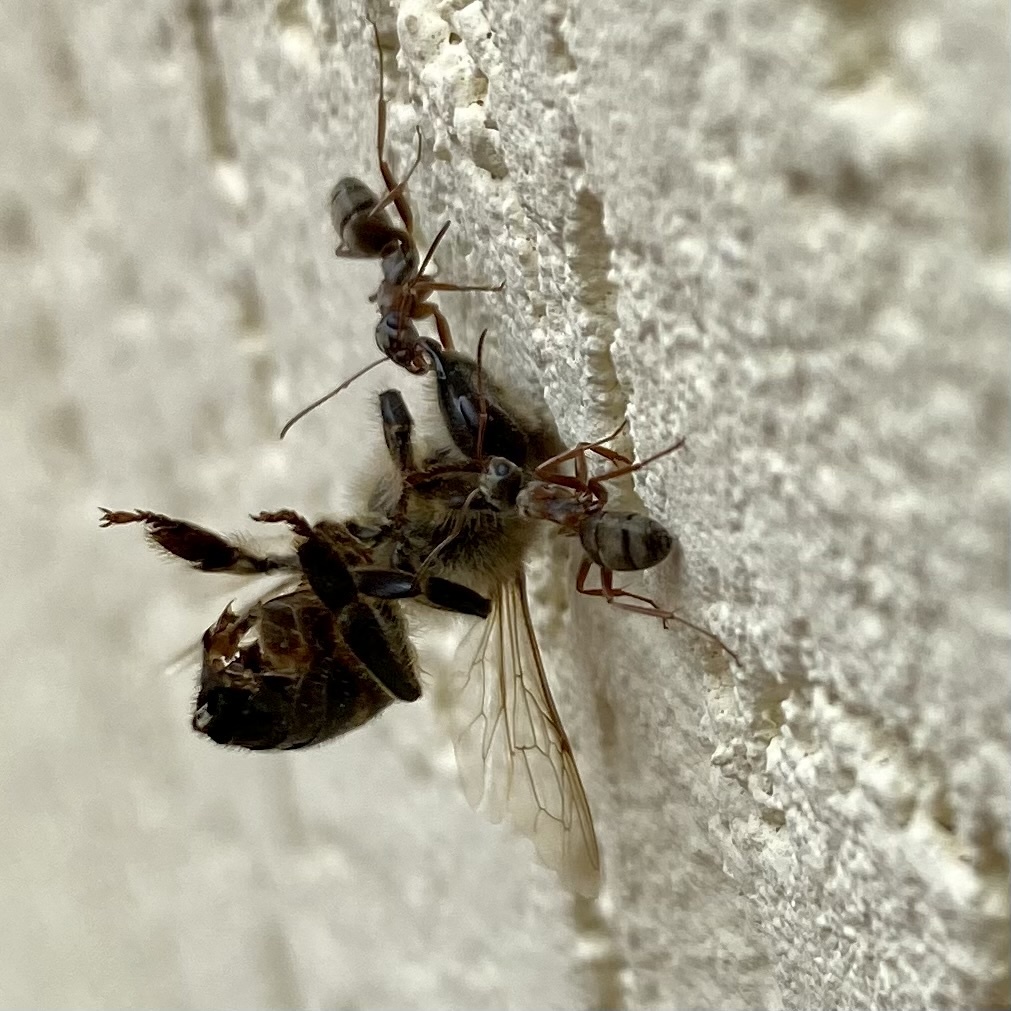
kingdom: Animalia
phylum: Arthropoda
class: Insecta
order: Hymenoptera
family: Apidae
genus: Apis
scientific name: Apis mellifera
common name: Honey bee
